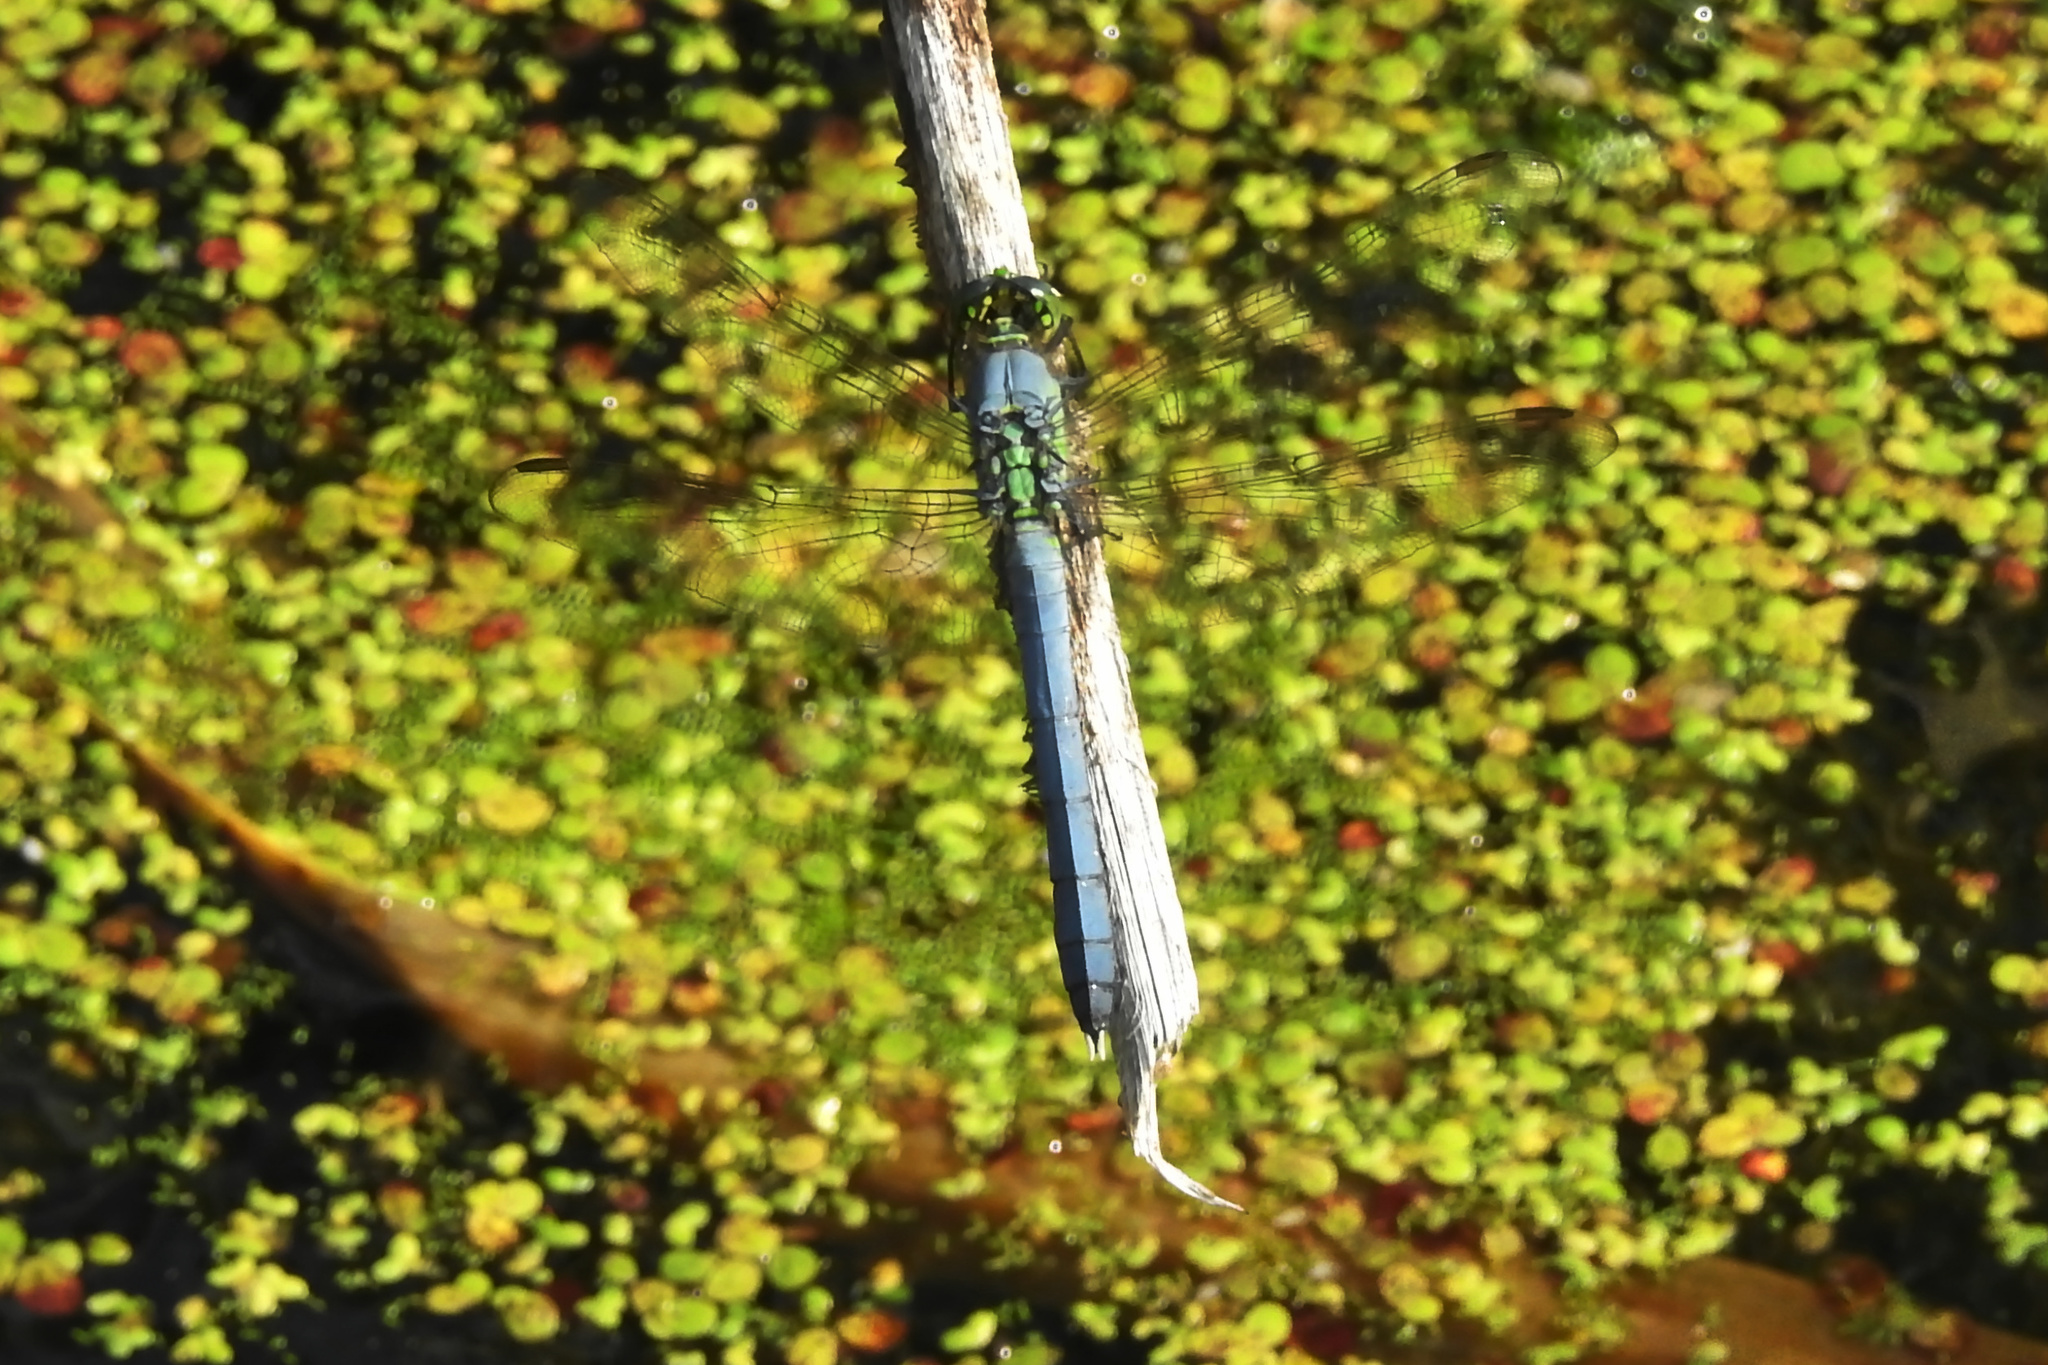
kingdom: Animalia
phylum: Arthropoda
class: Insecta
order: Odonata
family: Libellulidae
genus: Erythemis
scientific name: Erythemis simplicicollis
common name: Eastern pondhawk
